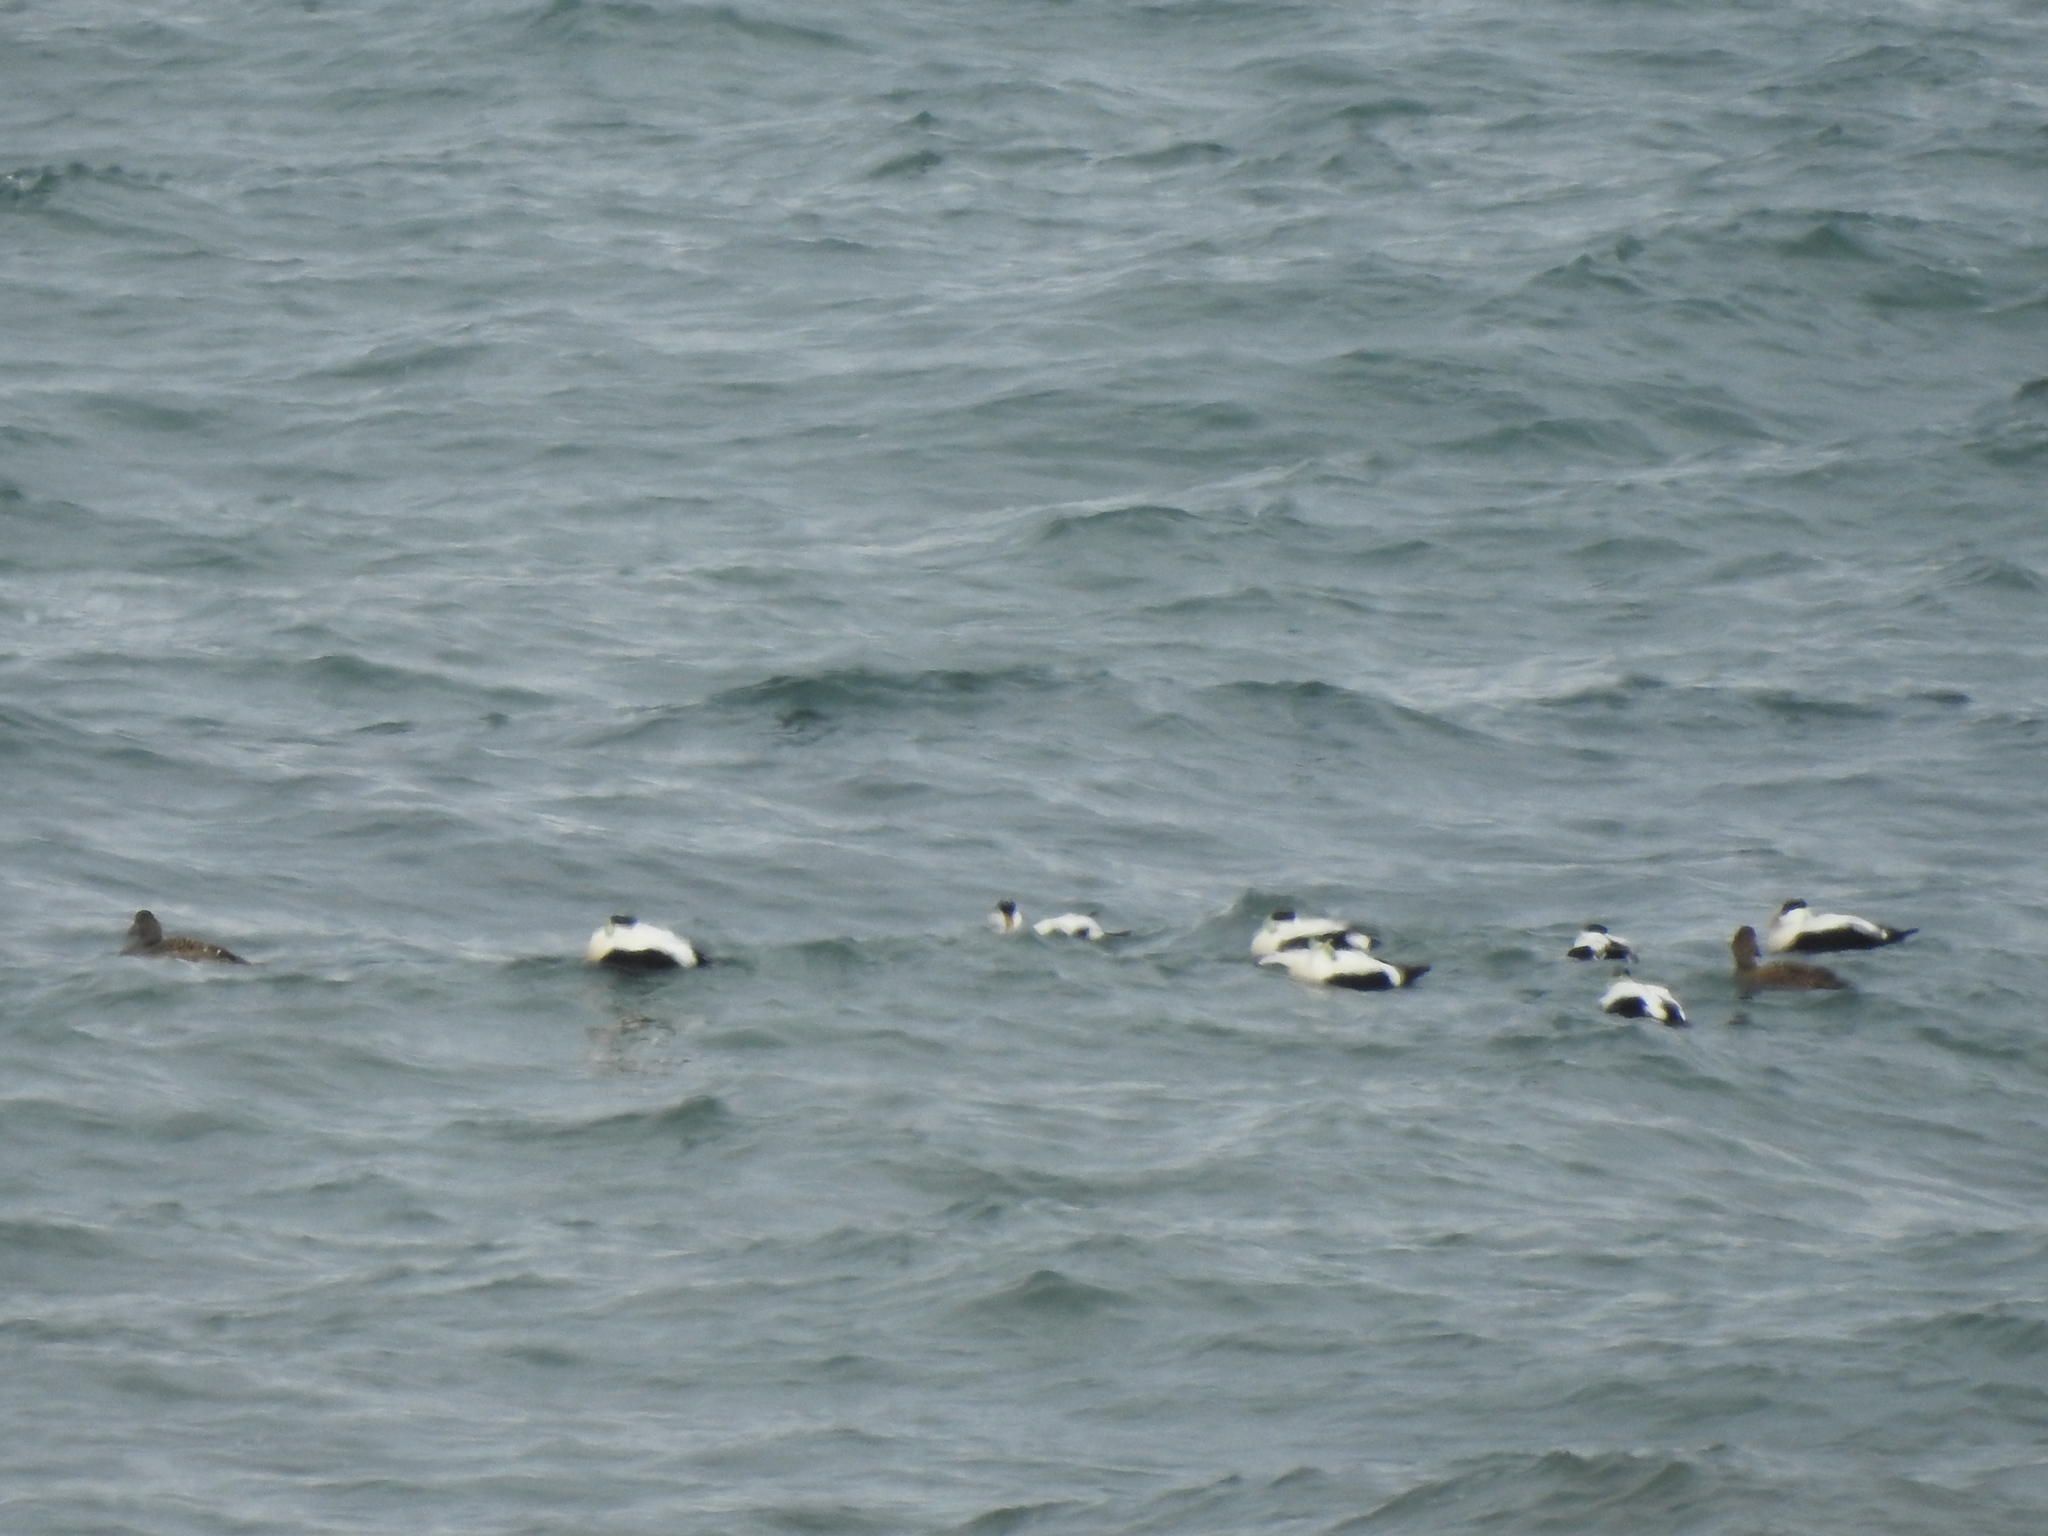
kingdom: Animalia
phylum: Chordata
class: Aves
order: Anseriformes
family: Anatidae
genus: Somateria
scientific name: Somateria mollissima
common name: Common eider
